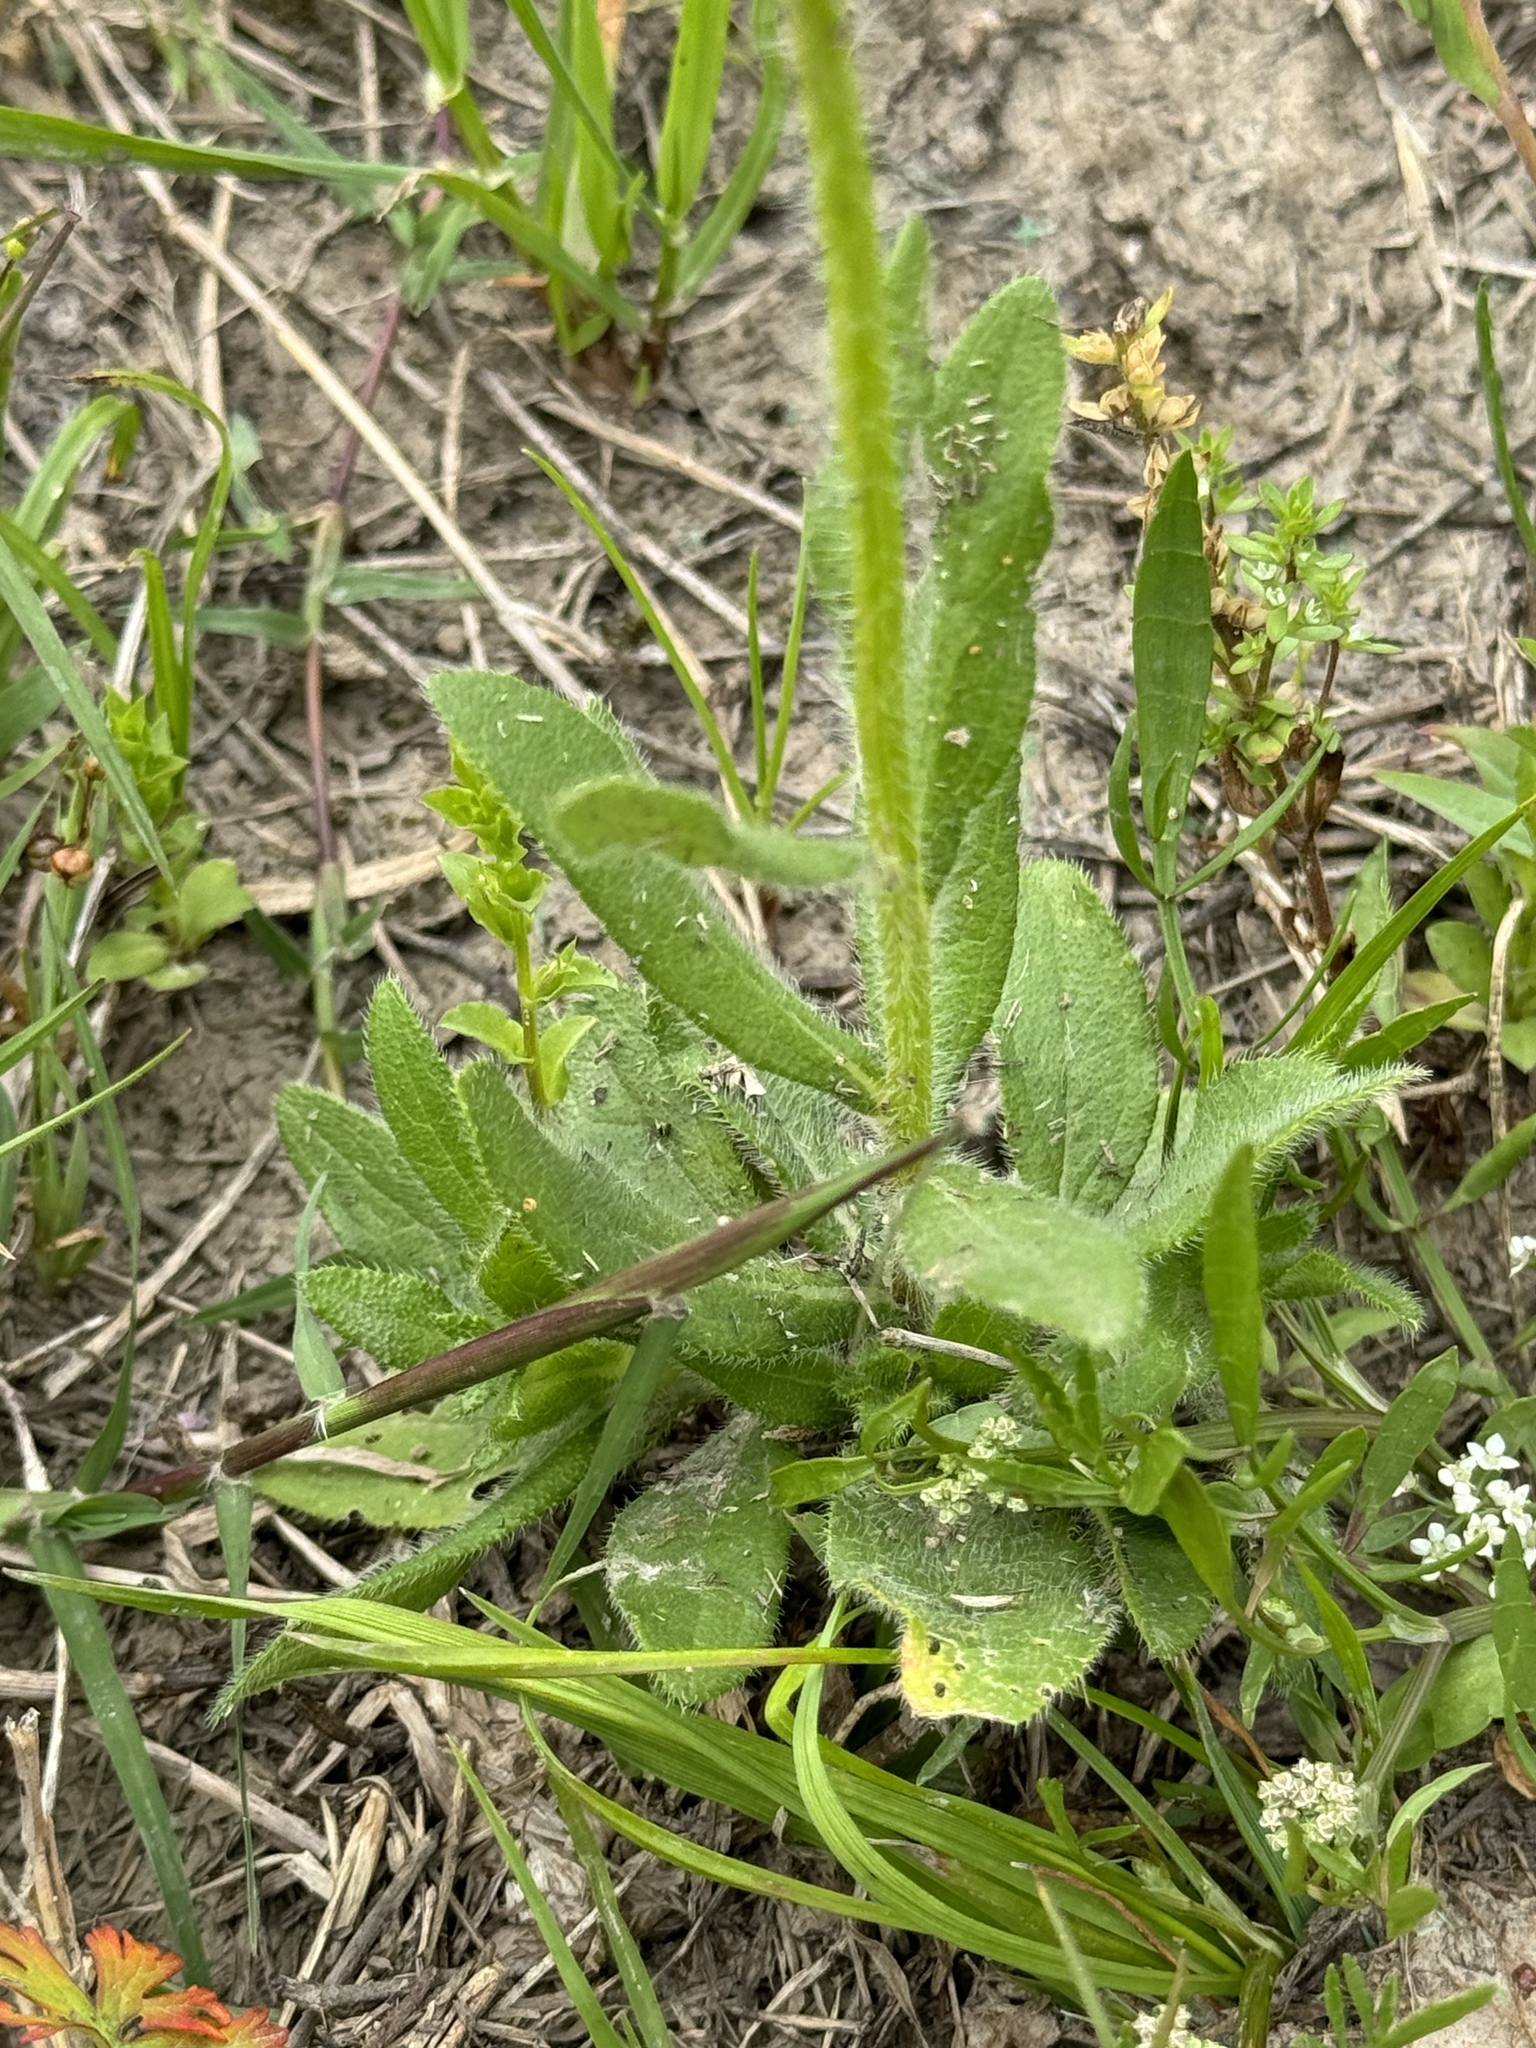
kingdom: Plantae
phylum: Tracheophyta
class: Magnoliopsida
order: Asterales
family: Asteraceae
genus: Rudbeckia
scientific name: Rudbeckia hirta
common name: Black-eyed-susan
